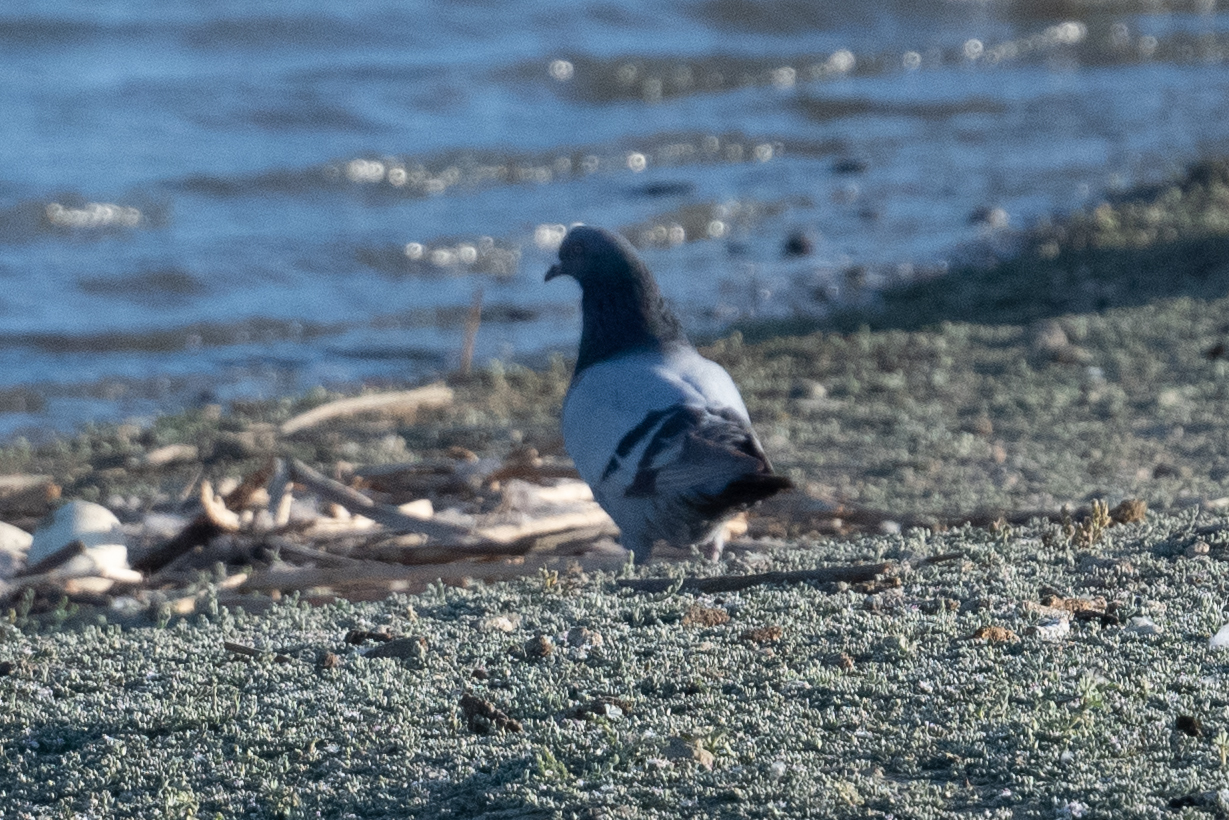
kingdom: Animalia
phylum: Chordata
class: Aves
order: Columbiformes
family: Columbidae
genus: Columba
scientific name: Columba livia
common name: Rock pigeon
